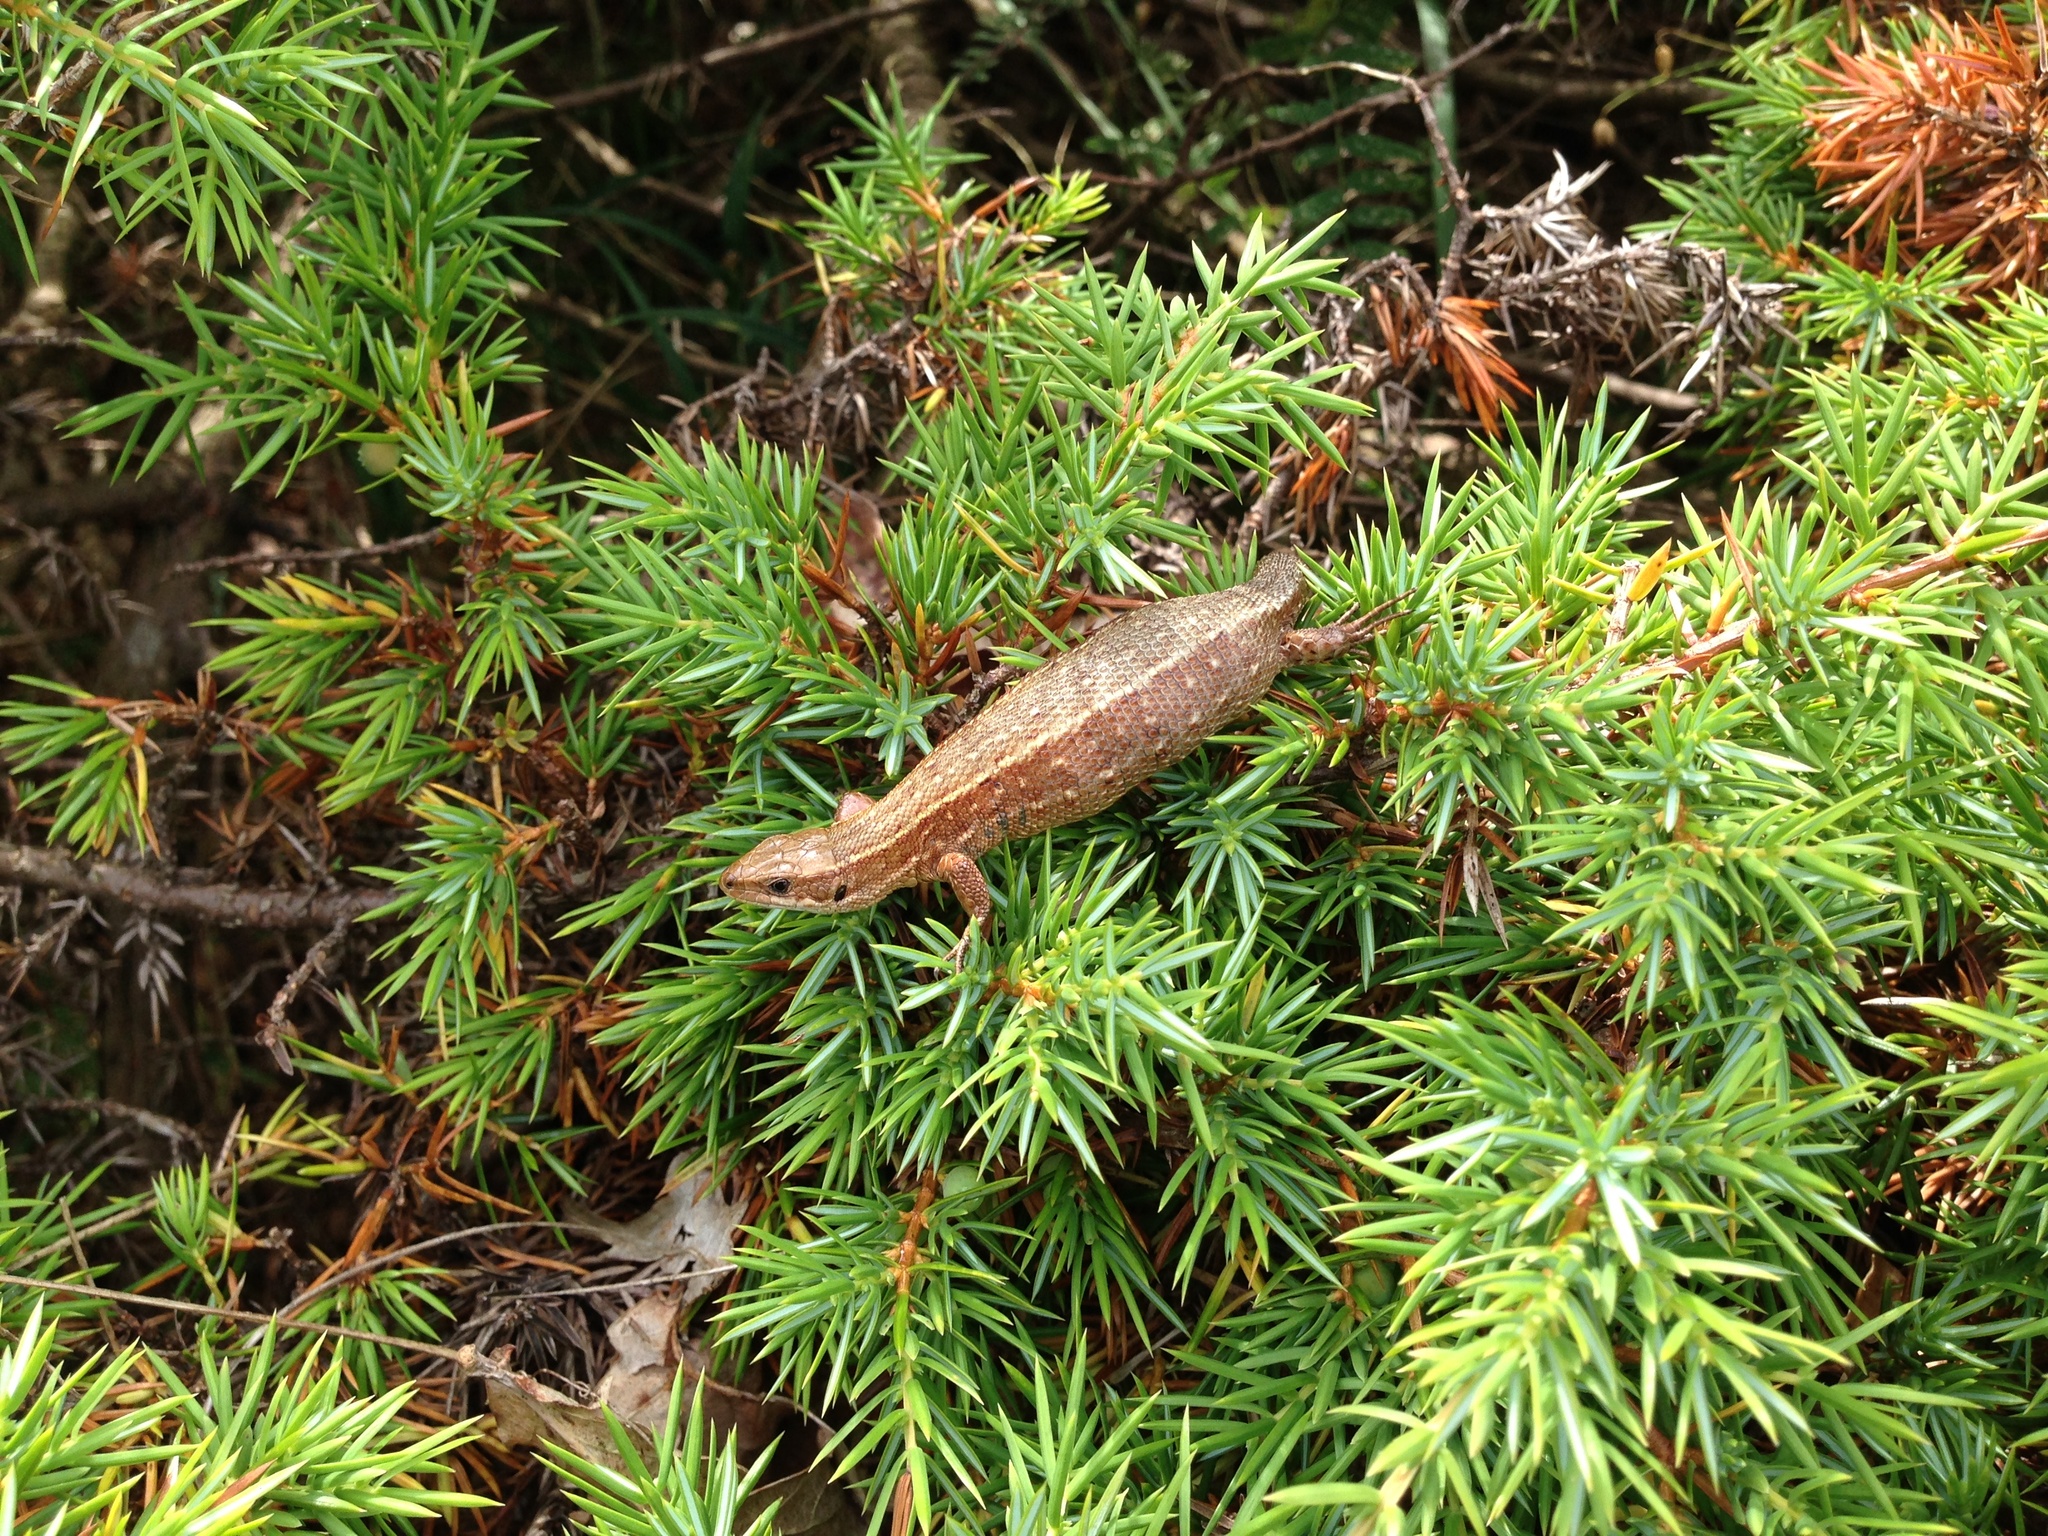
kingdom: Animalia
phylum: Chordata
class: Squamata
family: Lacertidae
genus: Zootoca
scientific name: Zootoca vivipara
